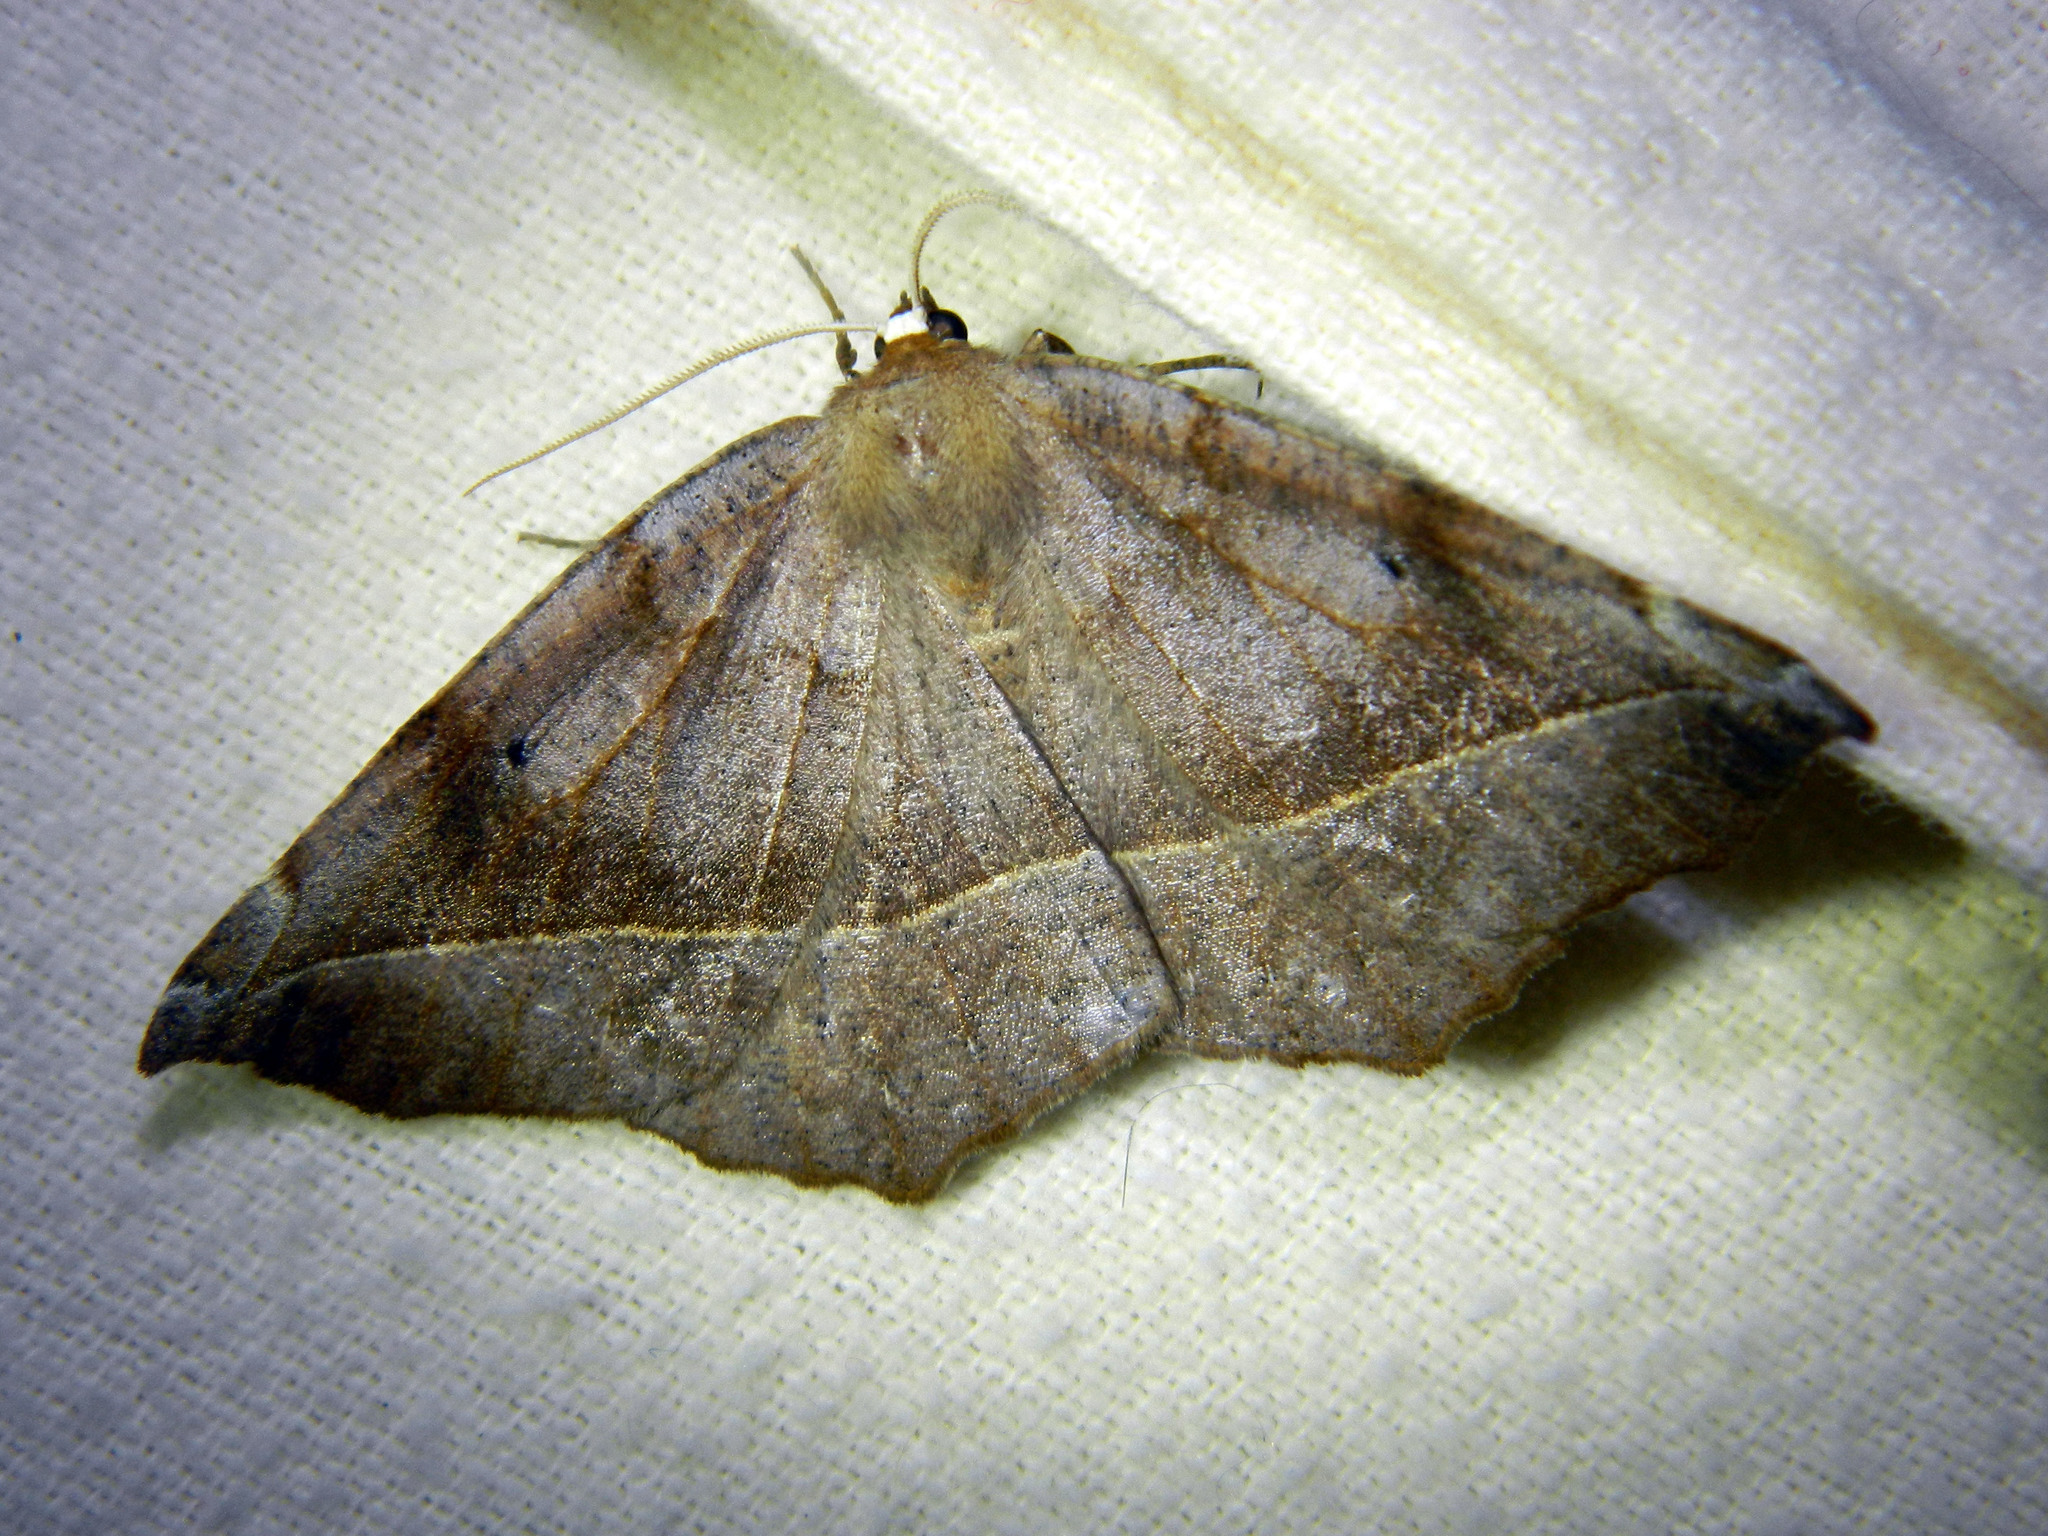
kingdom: Animalia
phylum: Arthropoda
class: Insecta
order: Lepidoptera
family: Geometridae
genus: Eutrapela
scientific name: Eutrapela clemataria
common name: Curved-toothed geometer
